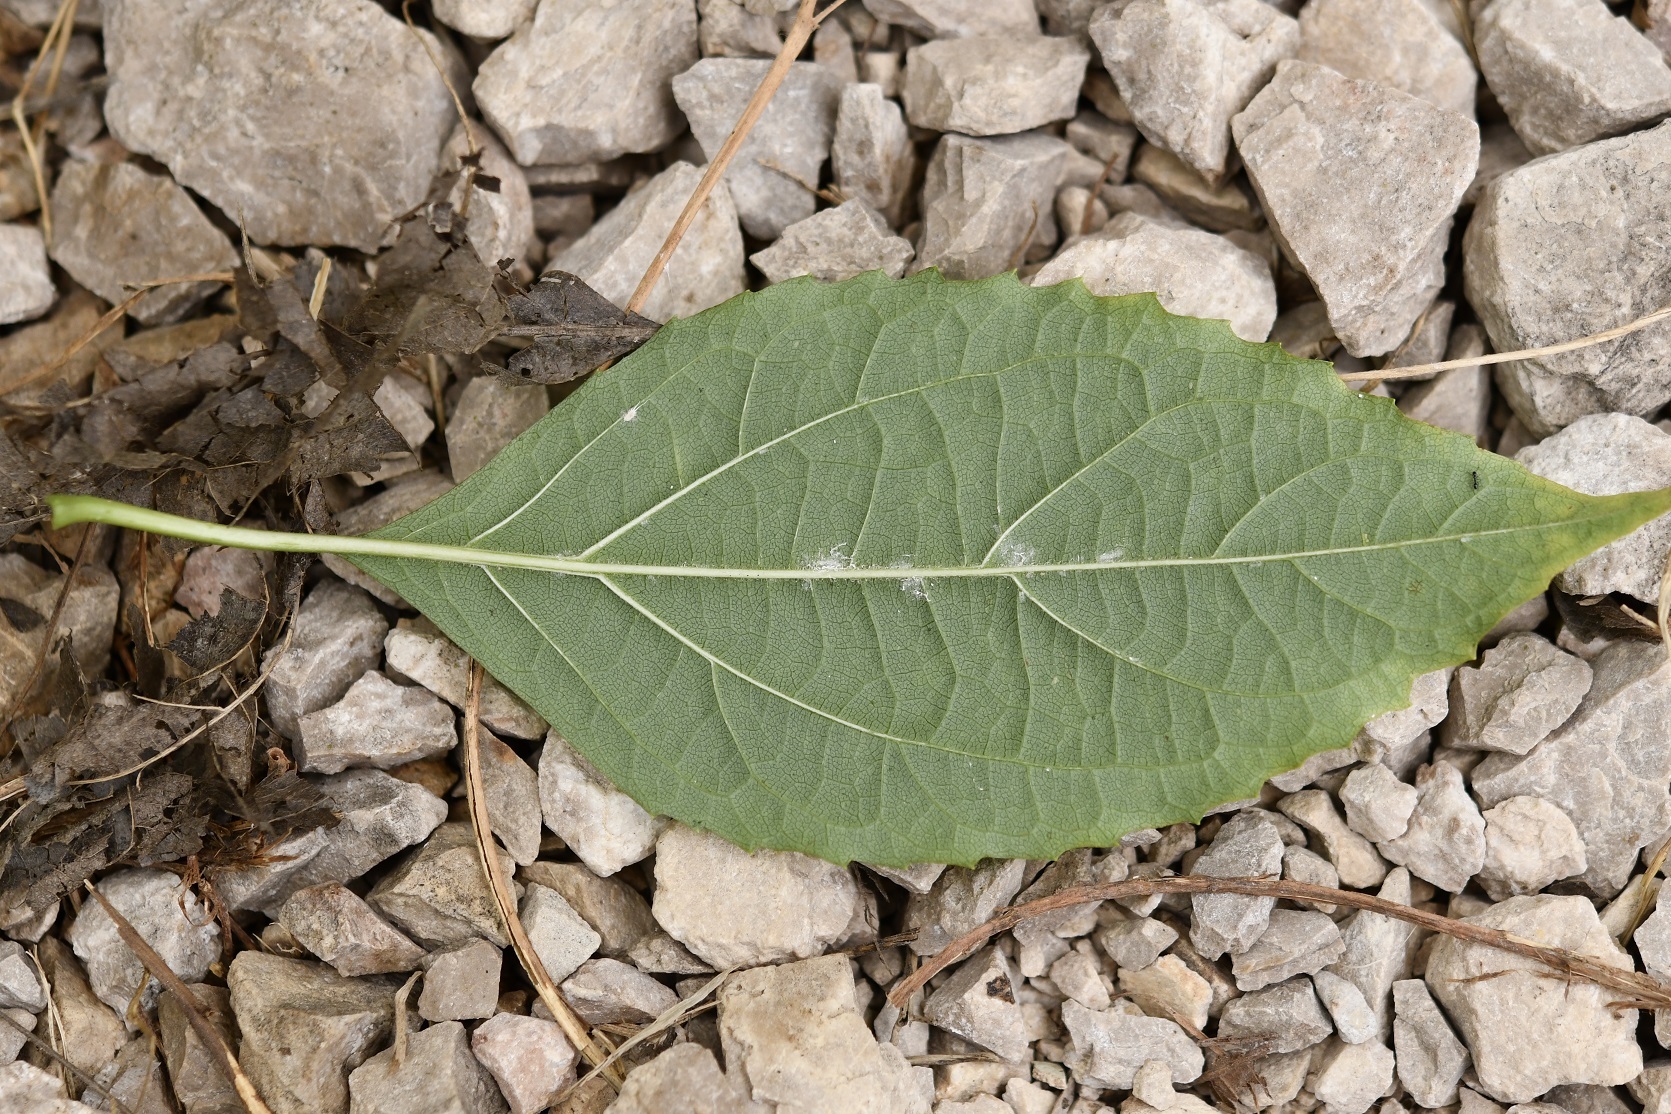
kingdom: Plantae
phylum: Tracheophyta
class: Magnoliopsida
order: Asterales
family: Asteraceae
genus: Chromolaena
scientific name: Chromolaena glaberrima
